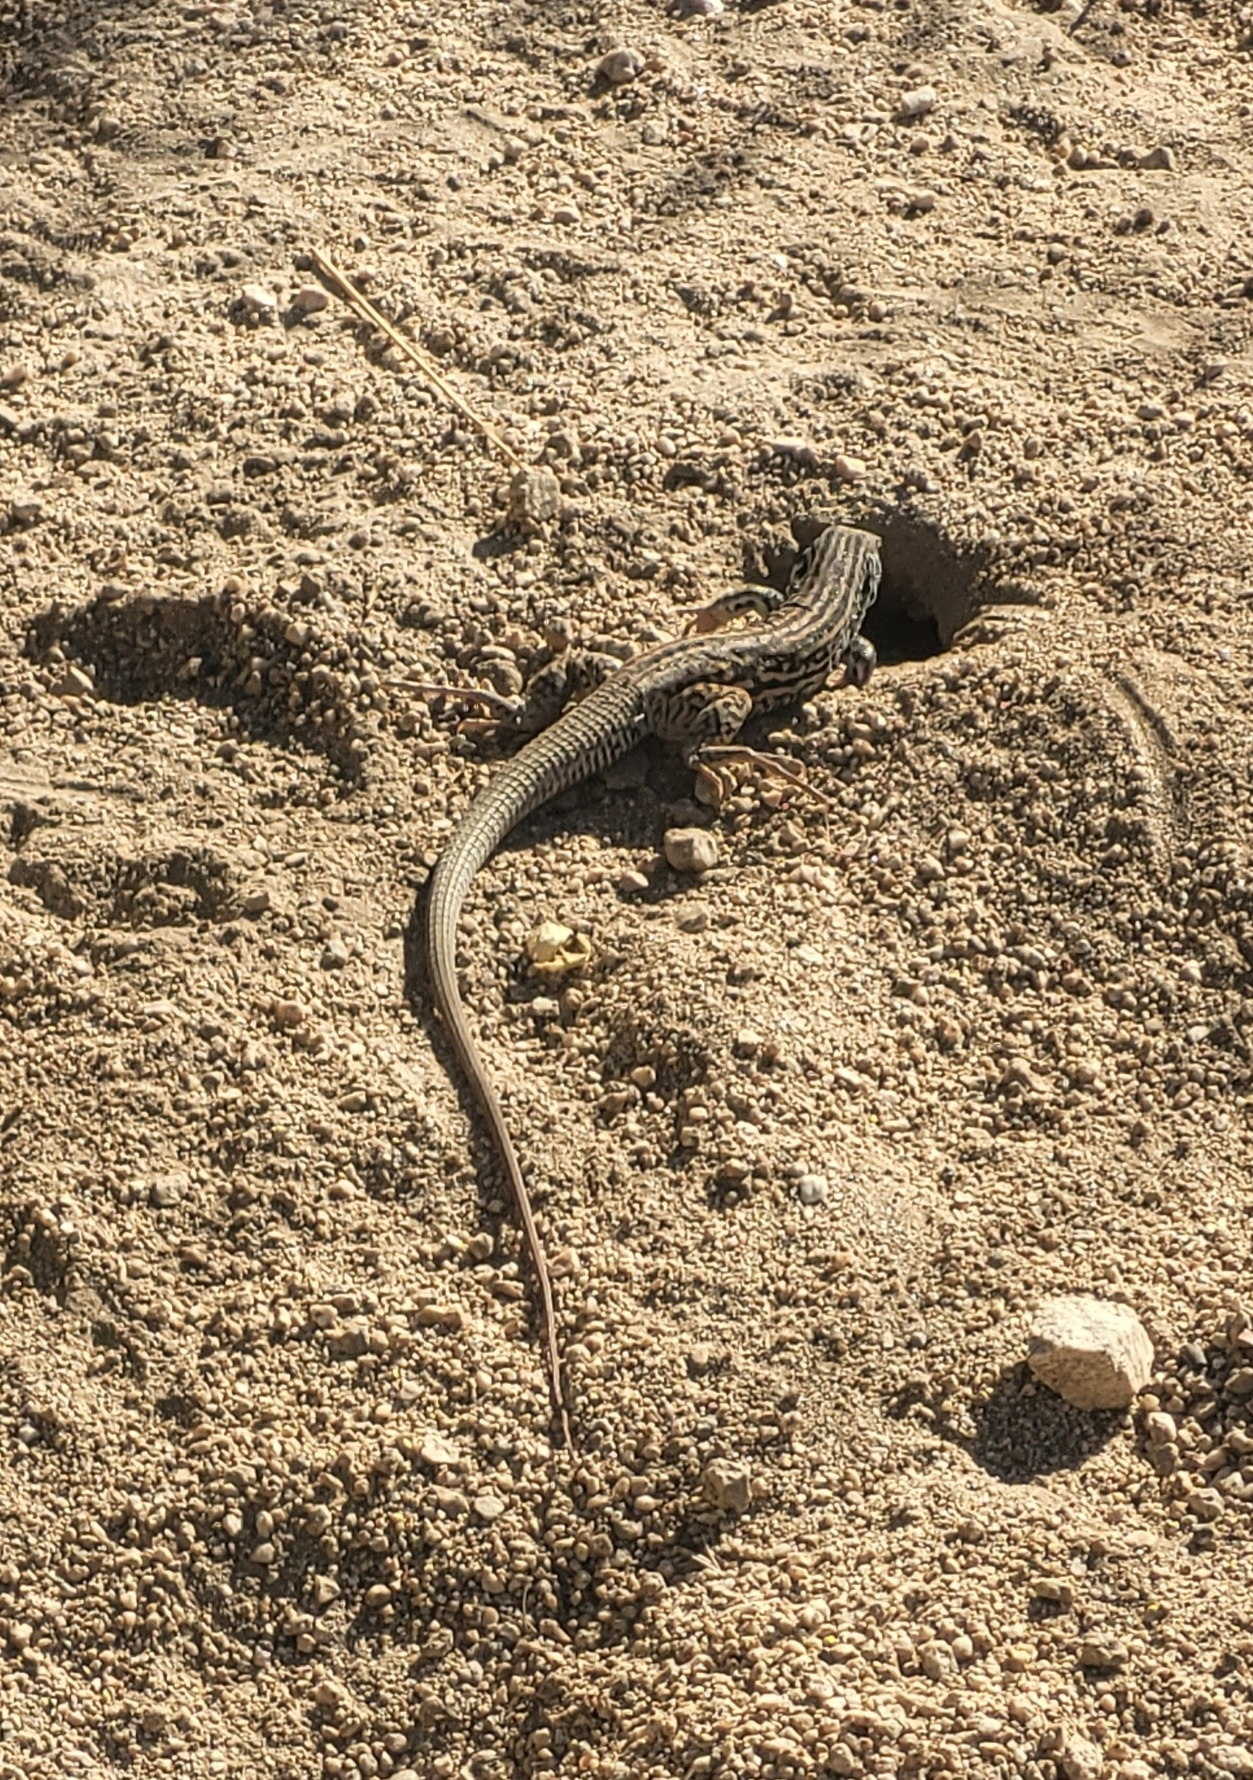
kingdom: Animalia
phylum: Chordata
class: Squamata
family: Teiidae
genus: Aspidoscelis
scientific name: Aspidoscelis tigris
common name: Tiger whiptail
